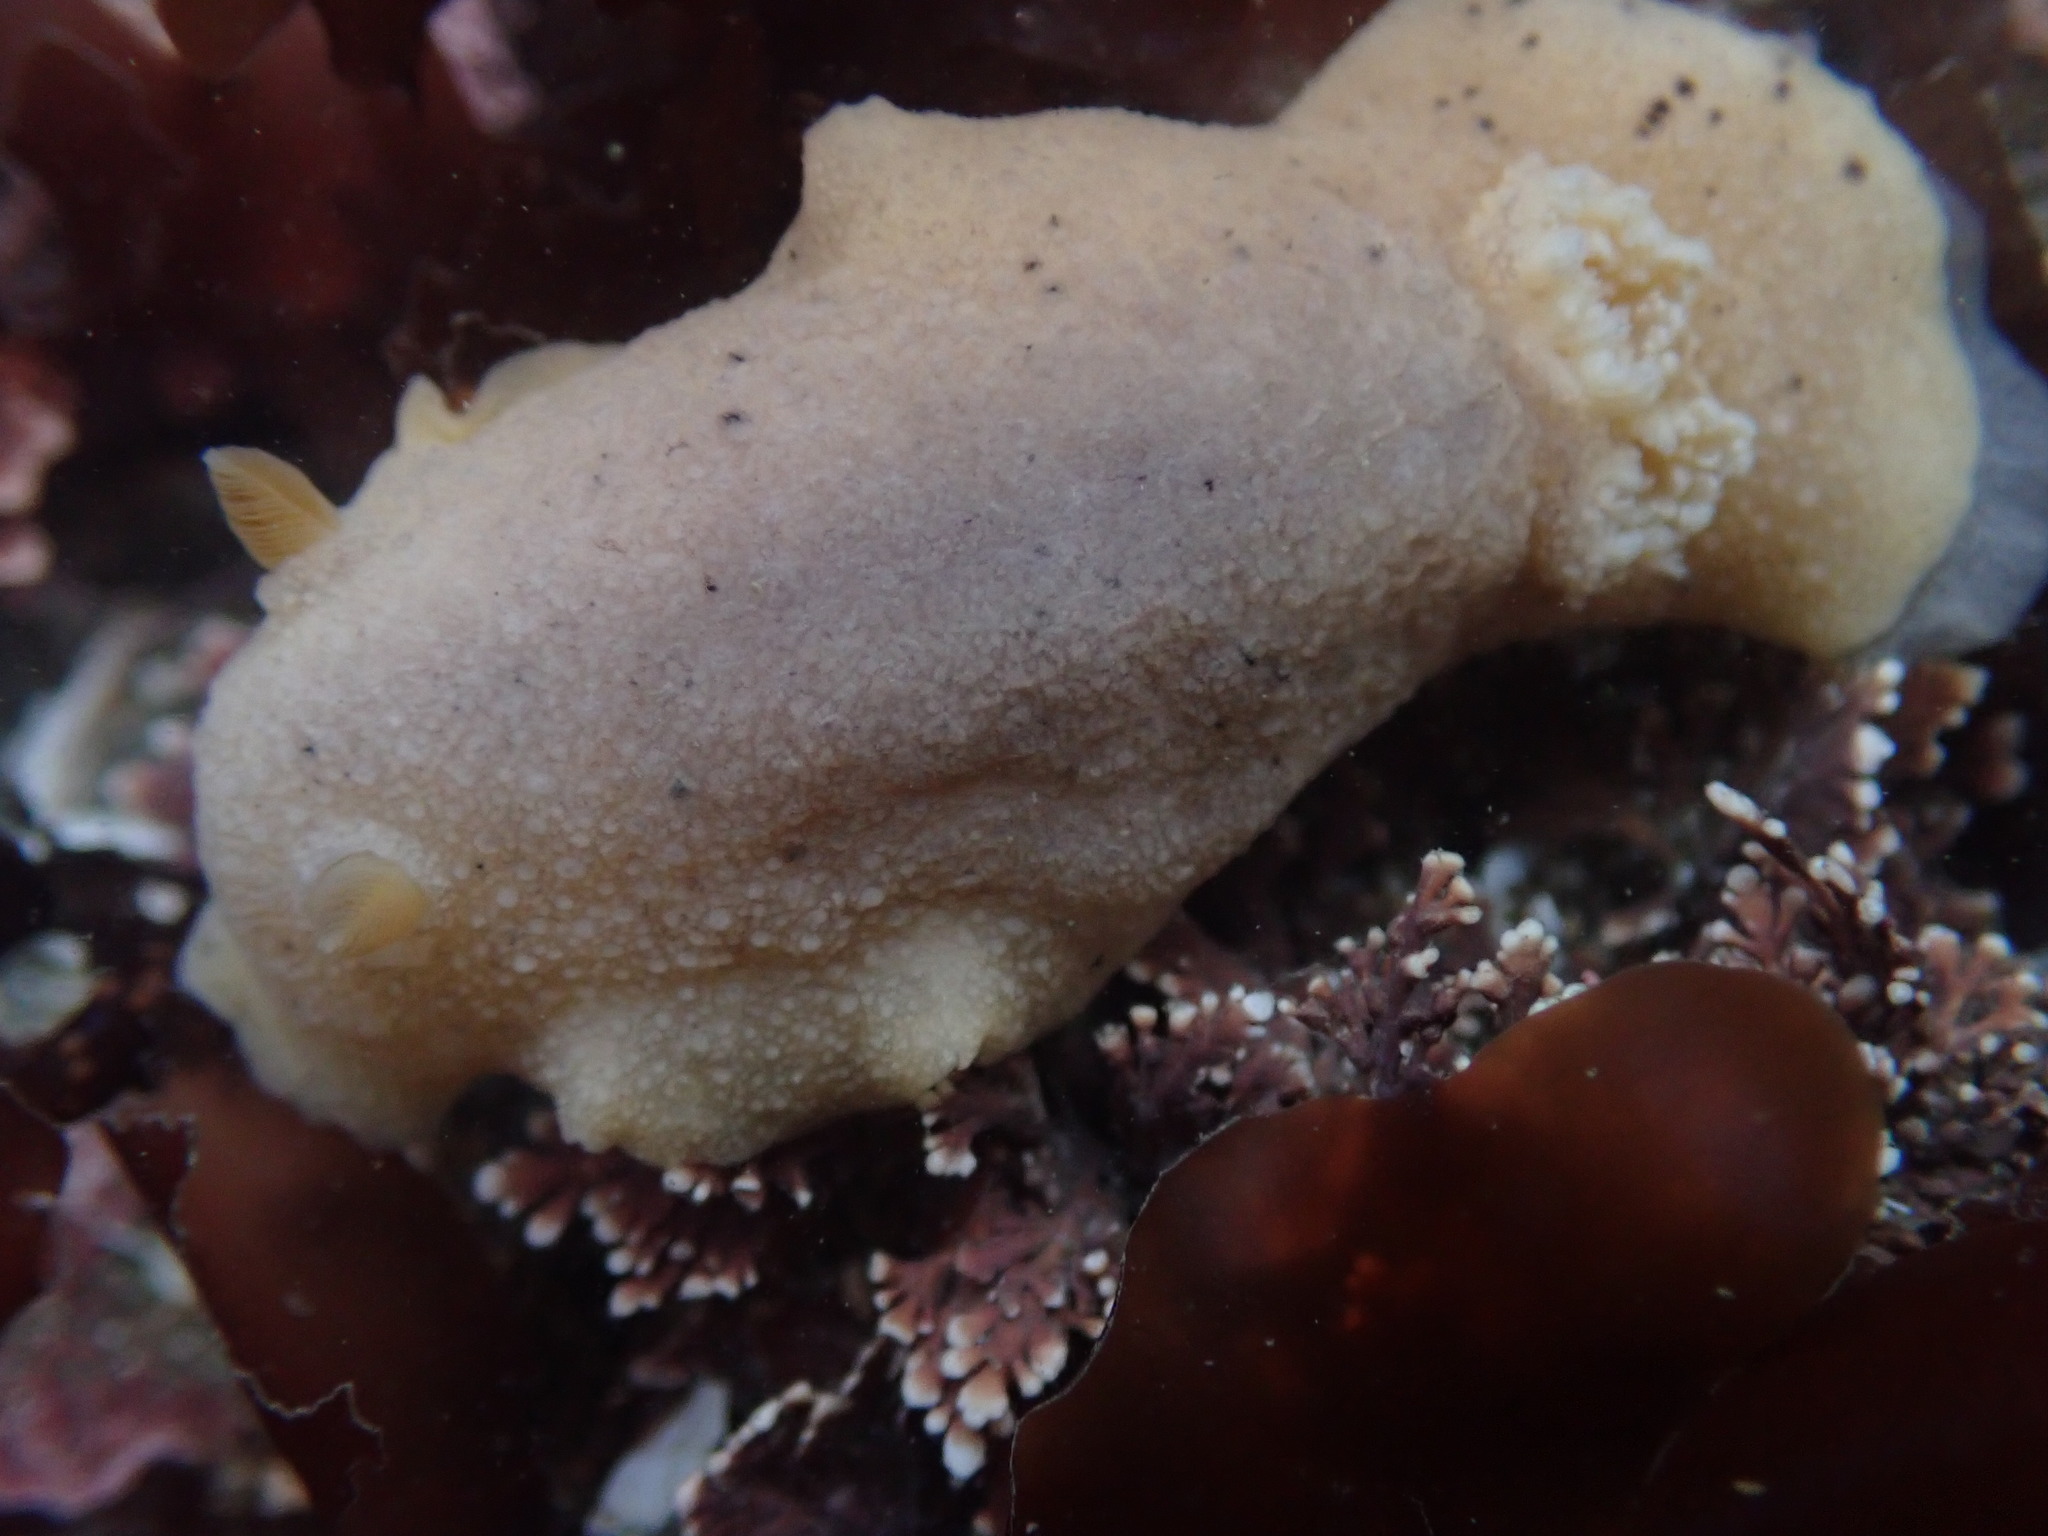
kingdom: Animalia
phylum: Mollusca
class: Gastropoda
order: Nudibranchia
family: Discodorididae
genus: Geitodoris
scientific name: Geitodoris heathi
